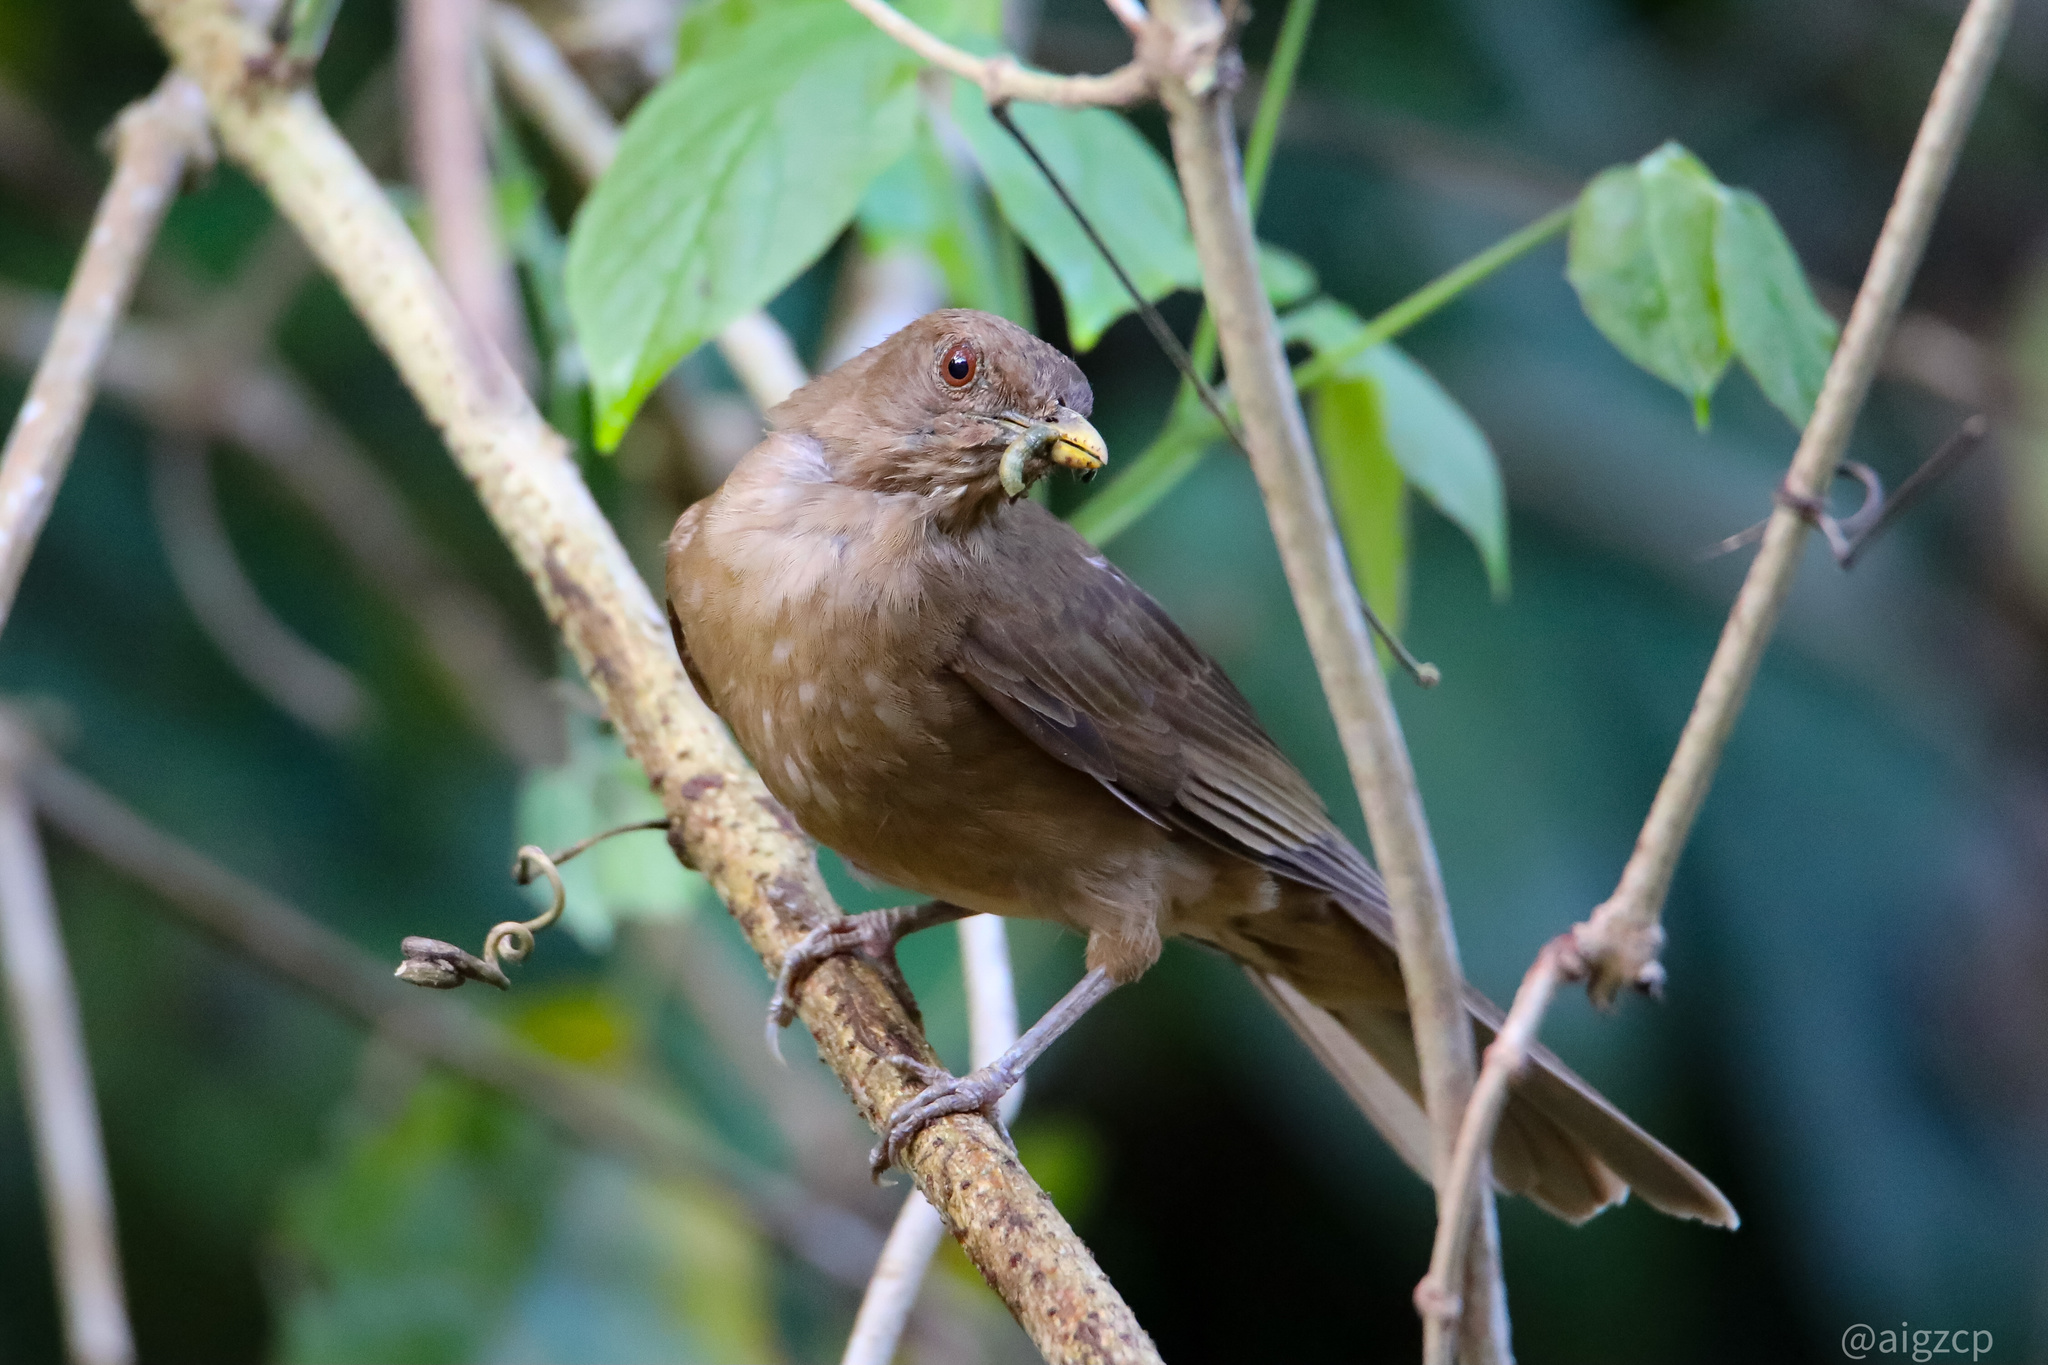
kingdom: Animalia
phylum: Chordata
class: Aves
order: Passeriformes
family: Turdidae
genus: Turdus
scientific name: Turdus grayi
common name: Clay-colored thrush
